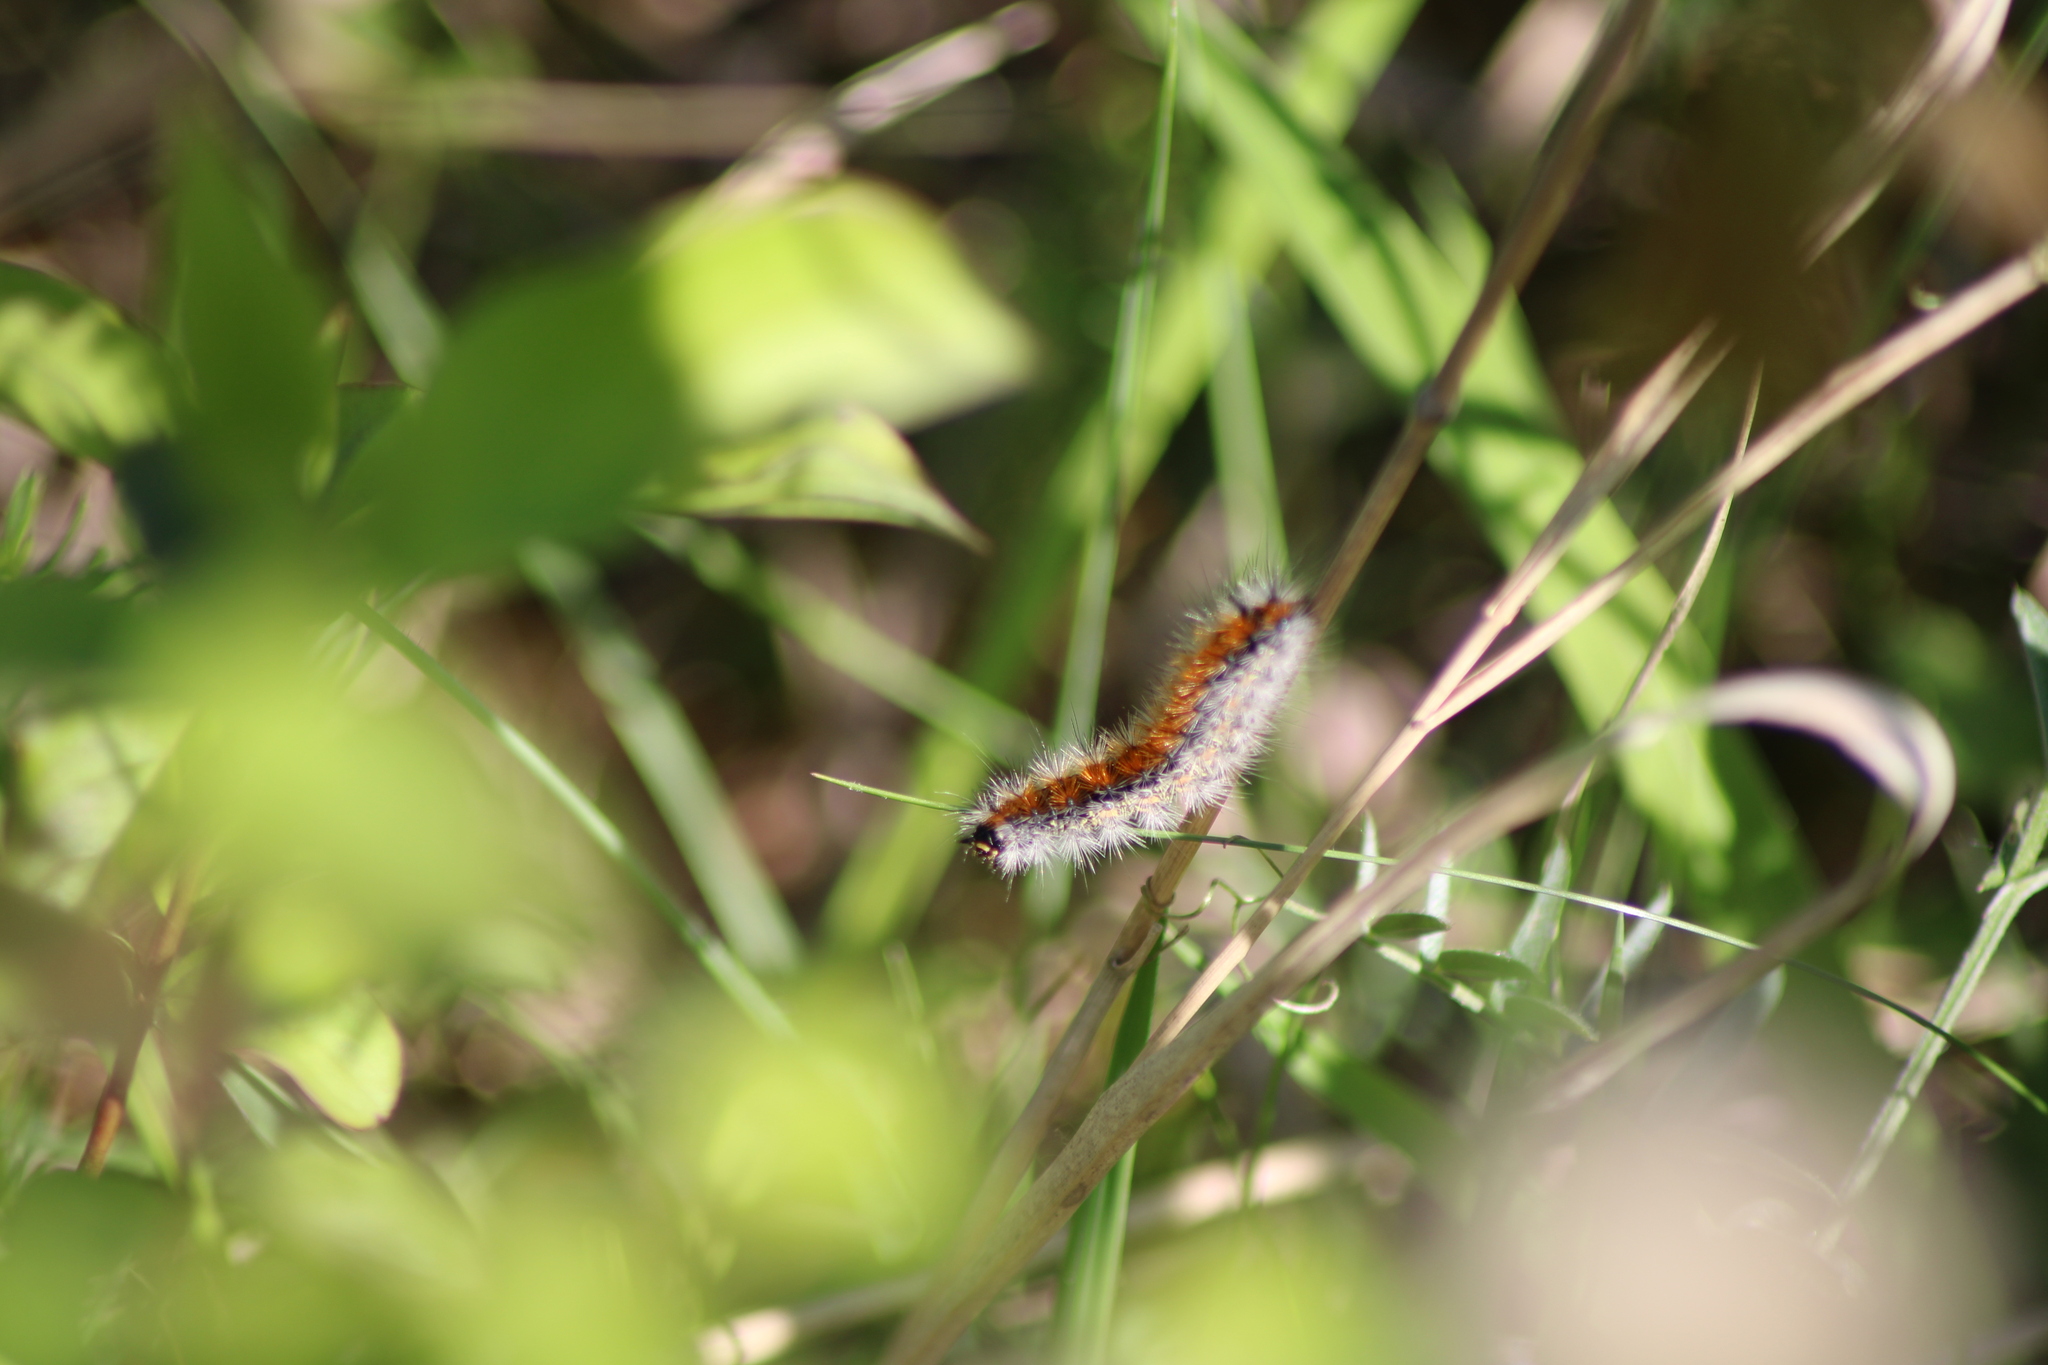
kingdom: Animalia
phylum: Arthropoda
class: Insecta
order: Lepidoptera
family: Erebidae
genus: Rhyparia
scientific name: Rhyparia purpurata
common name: Purple tiger
